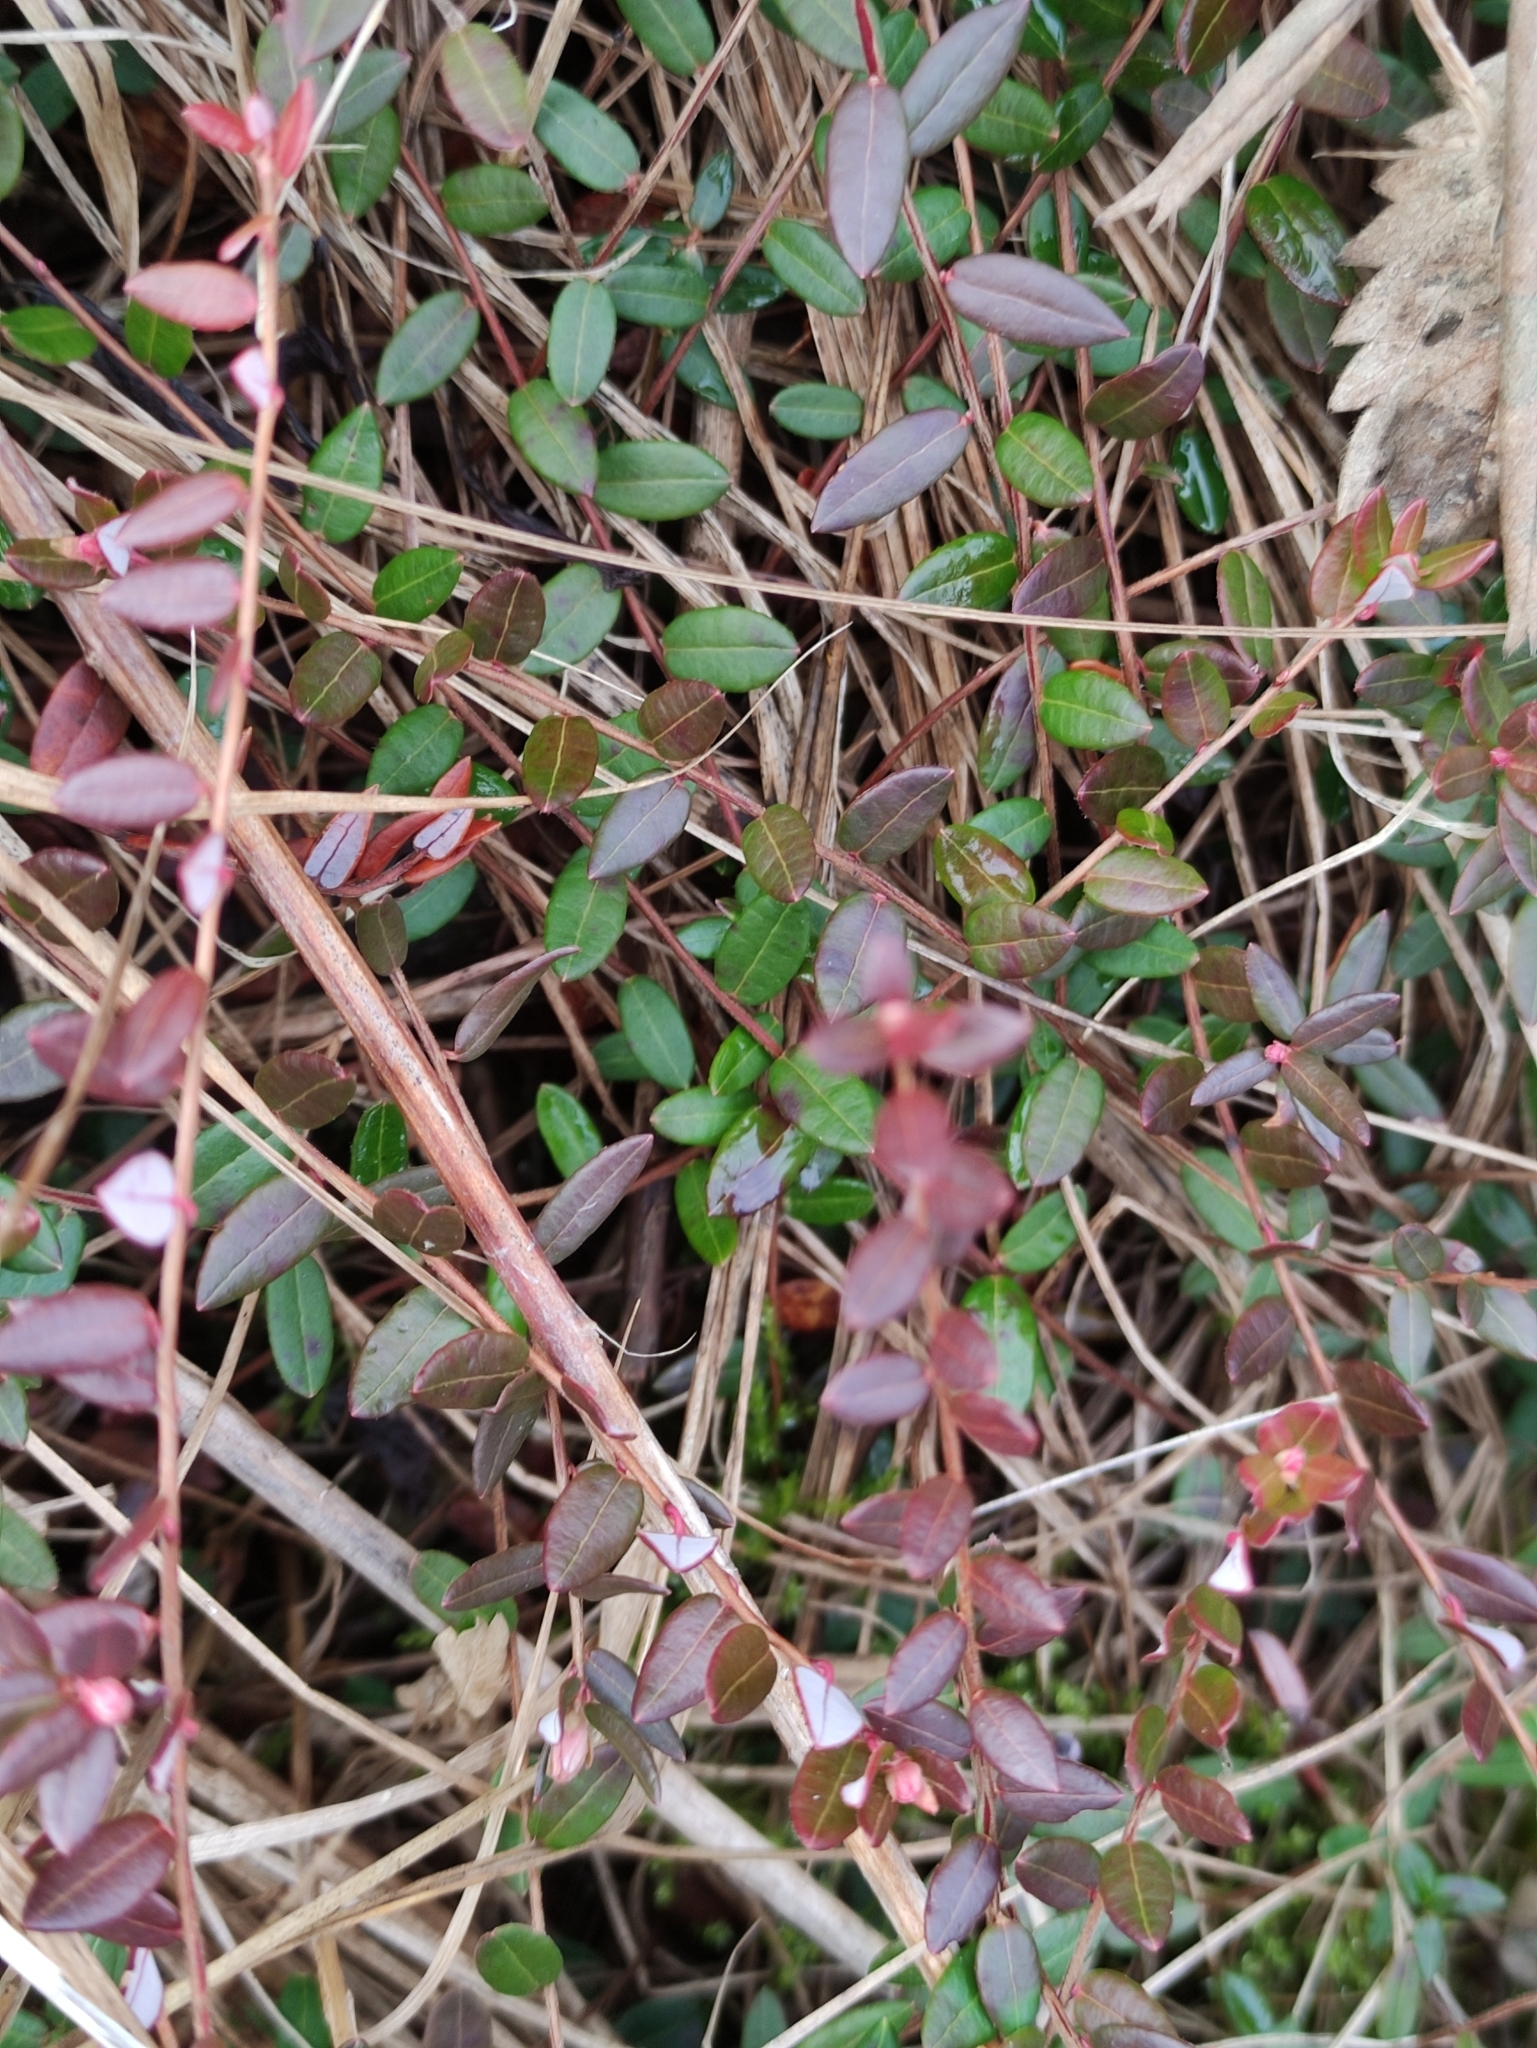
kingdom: Plantae
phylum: Tracheophyta
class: Magnoliopsida
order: Ericales
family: Ericaceae
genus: Vaccinium
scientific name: Vaccinium oxycoccos
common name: Cranberry
